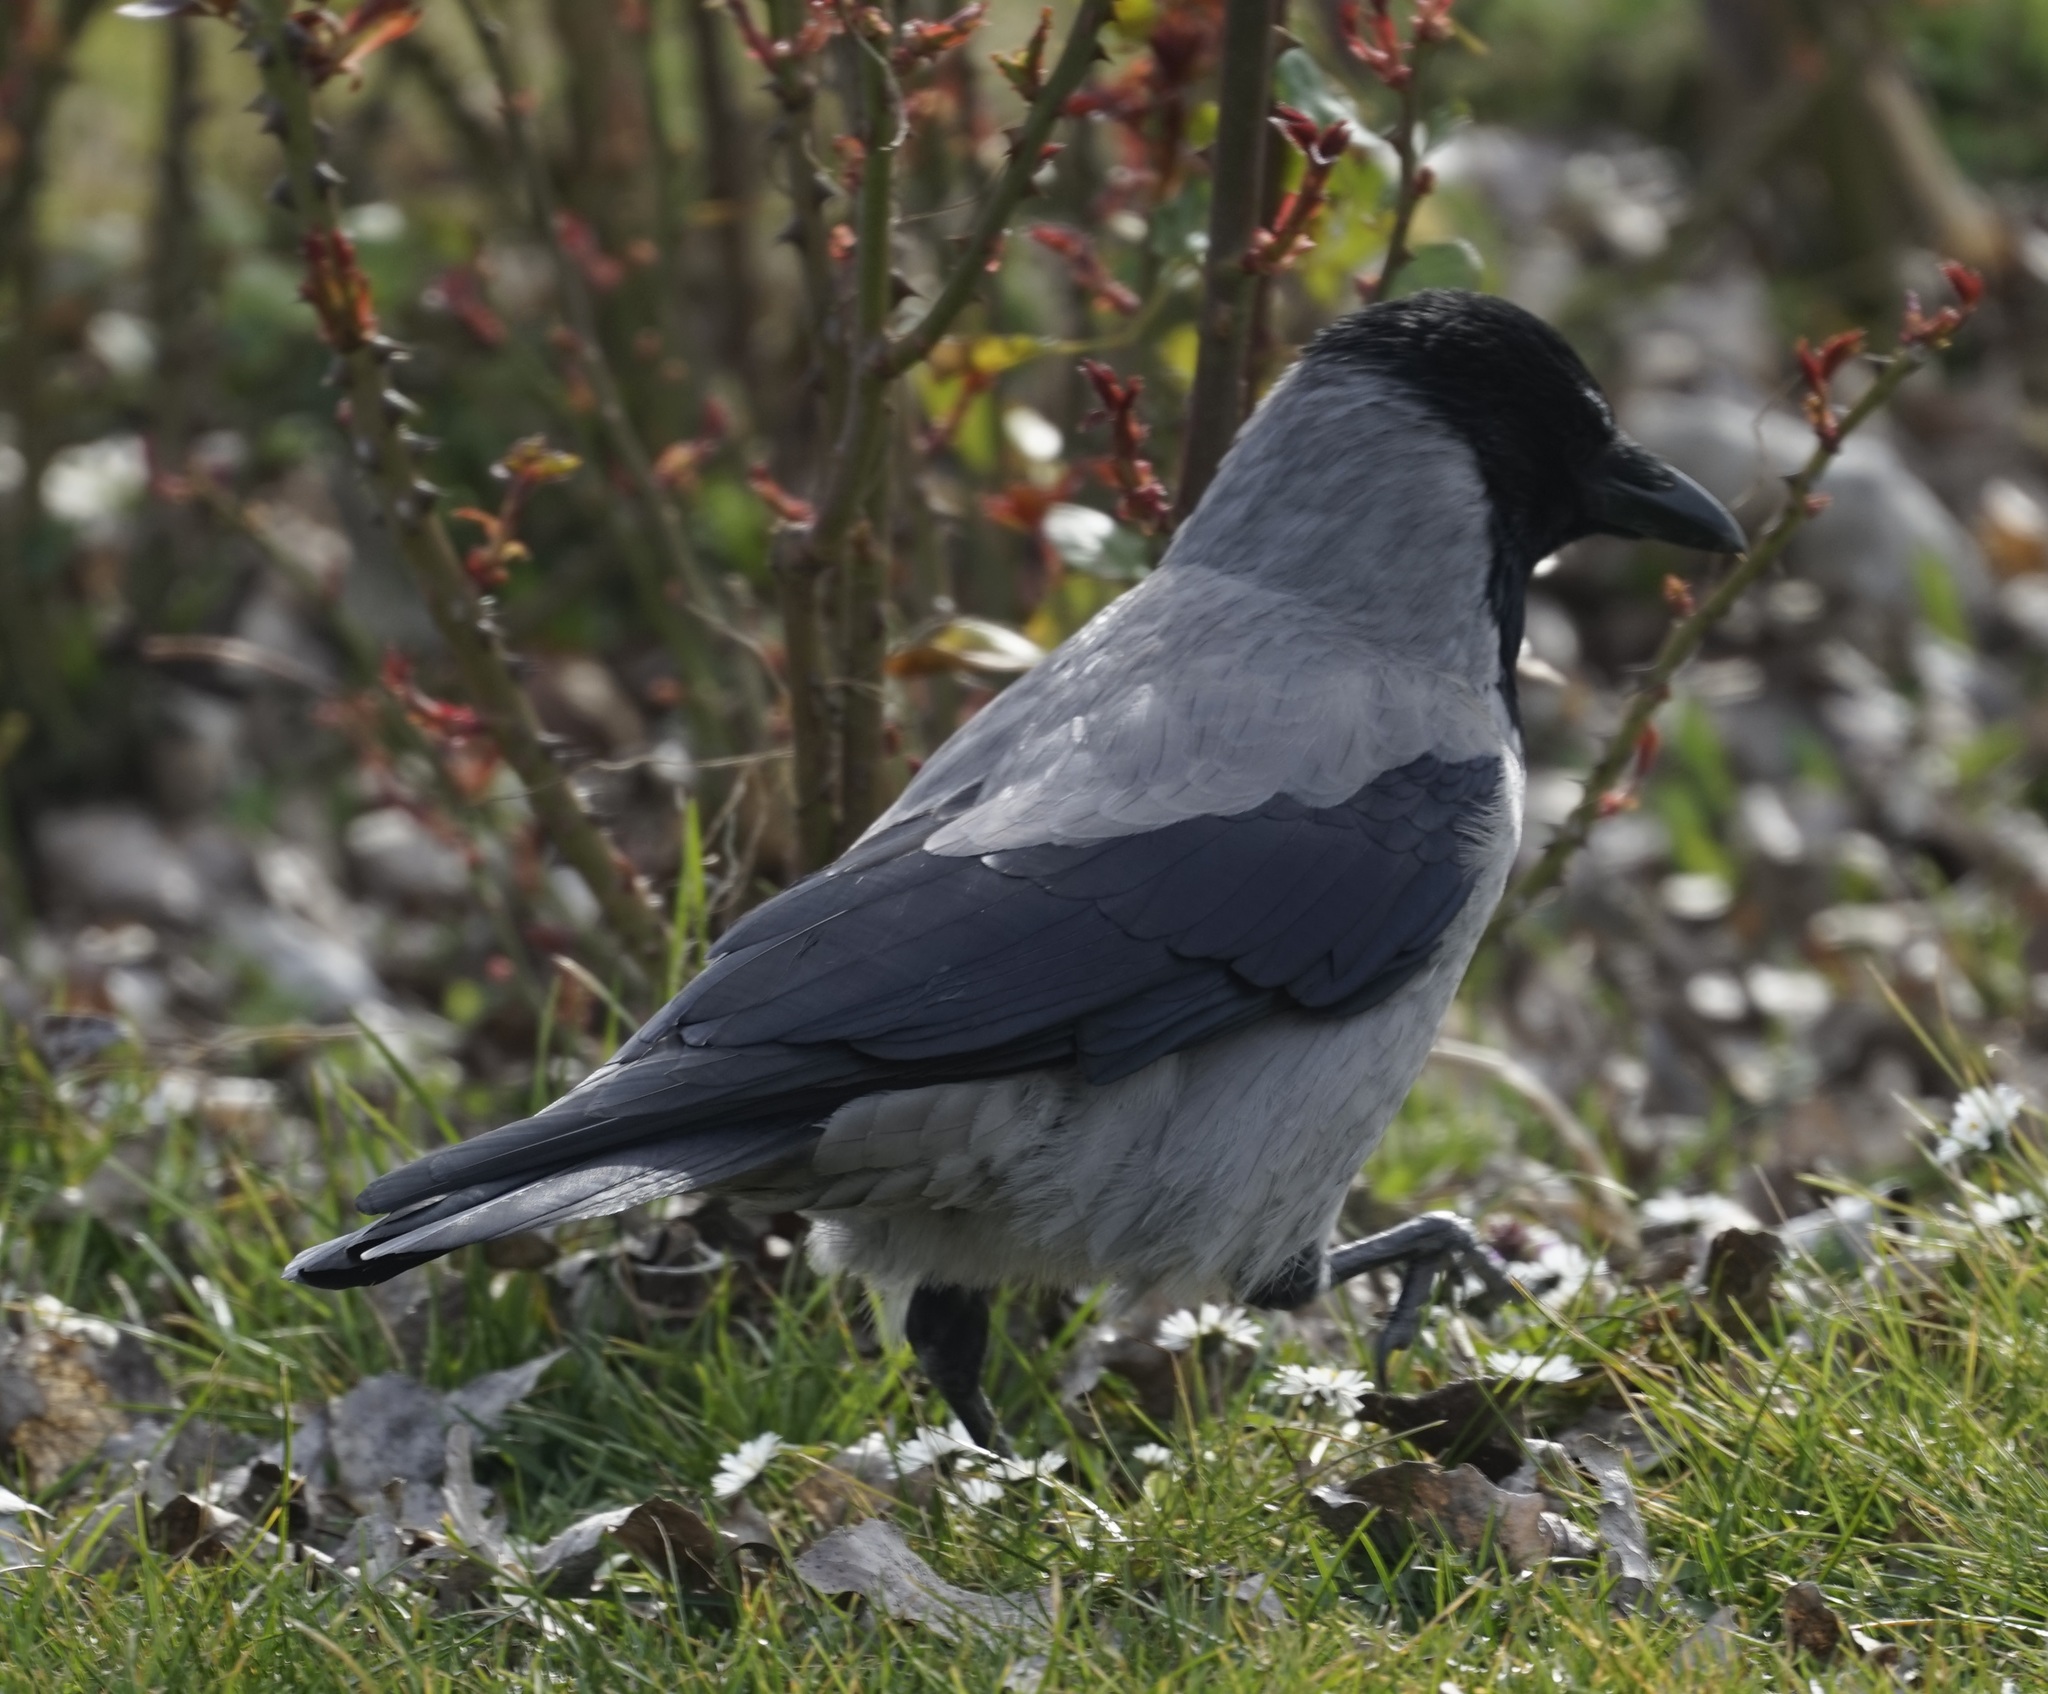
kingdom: Animalia
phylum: Chordata
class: Aves
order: Passeriformes
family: Corvidae
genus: Corvus
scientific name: Corvus cornix
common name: Hooded crow
